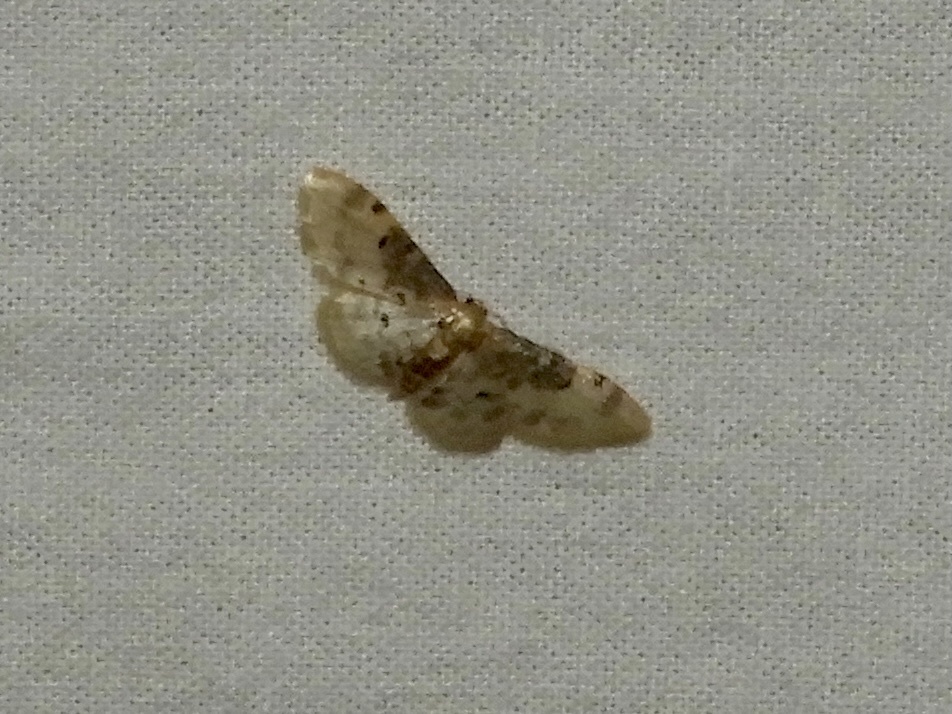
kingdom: Animalia
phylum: Arthropoda
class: Insecta
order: Lepidoptera
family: Geometridae
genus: Idaea
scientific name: Idaea filicata
